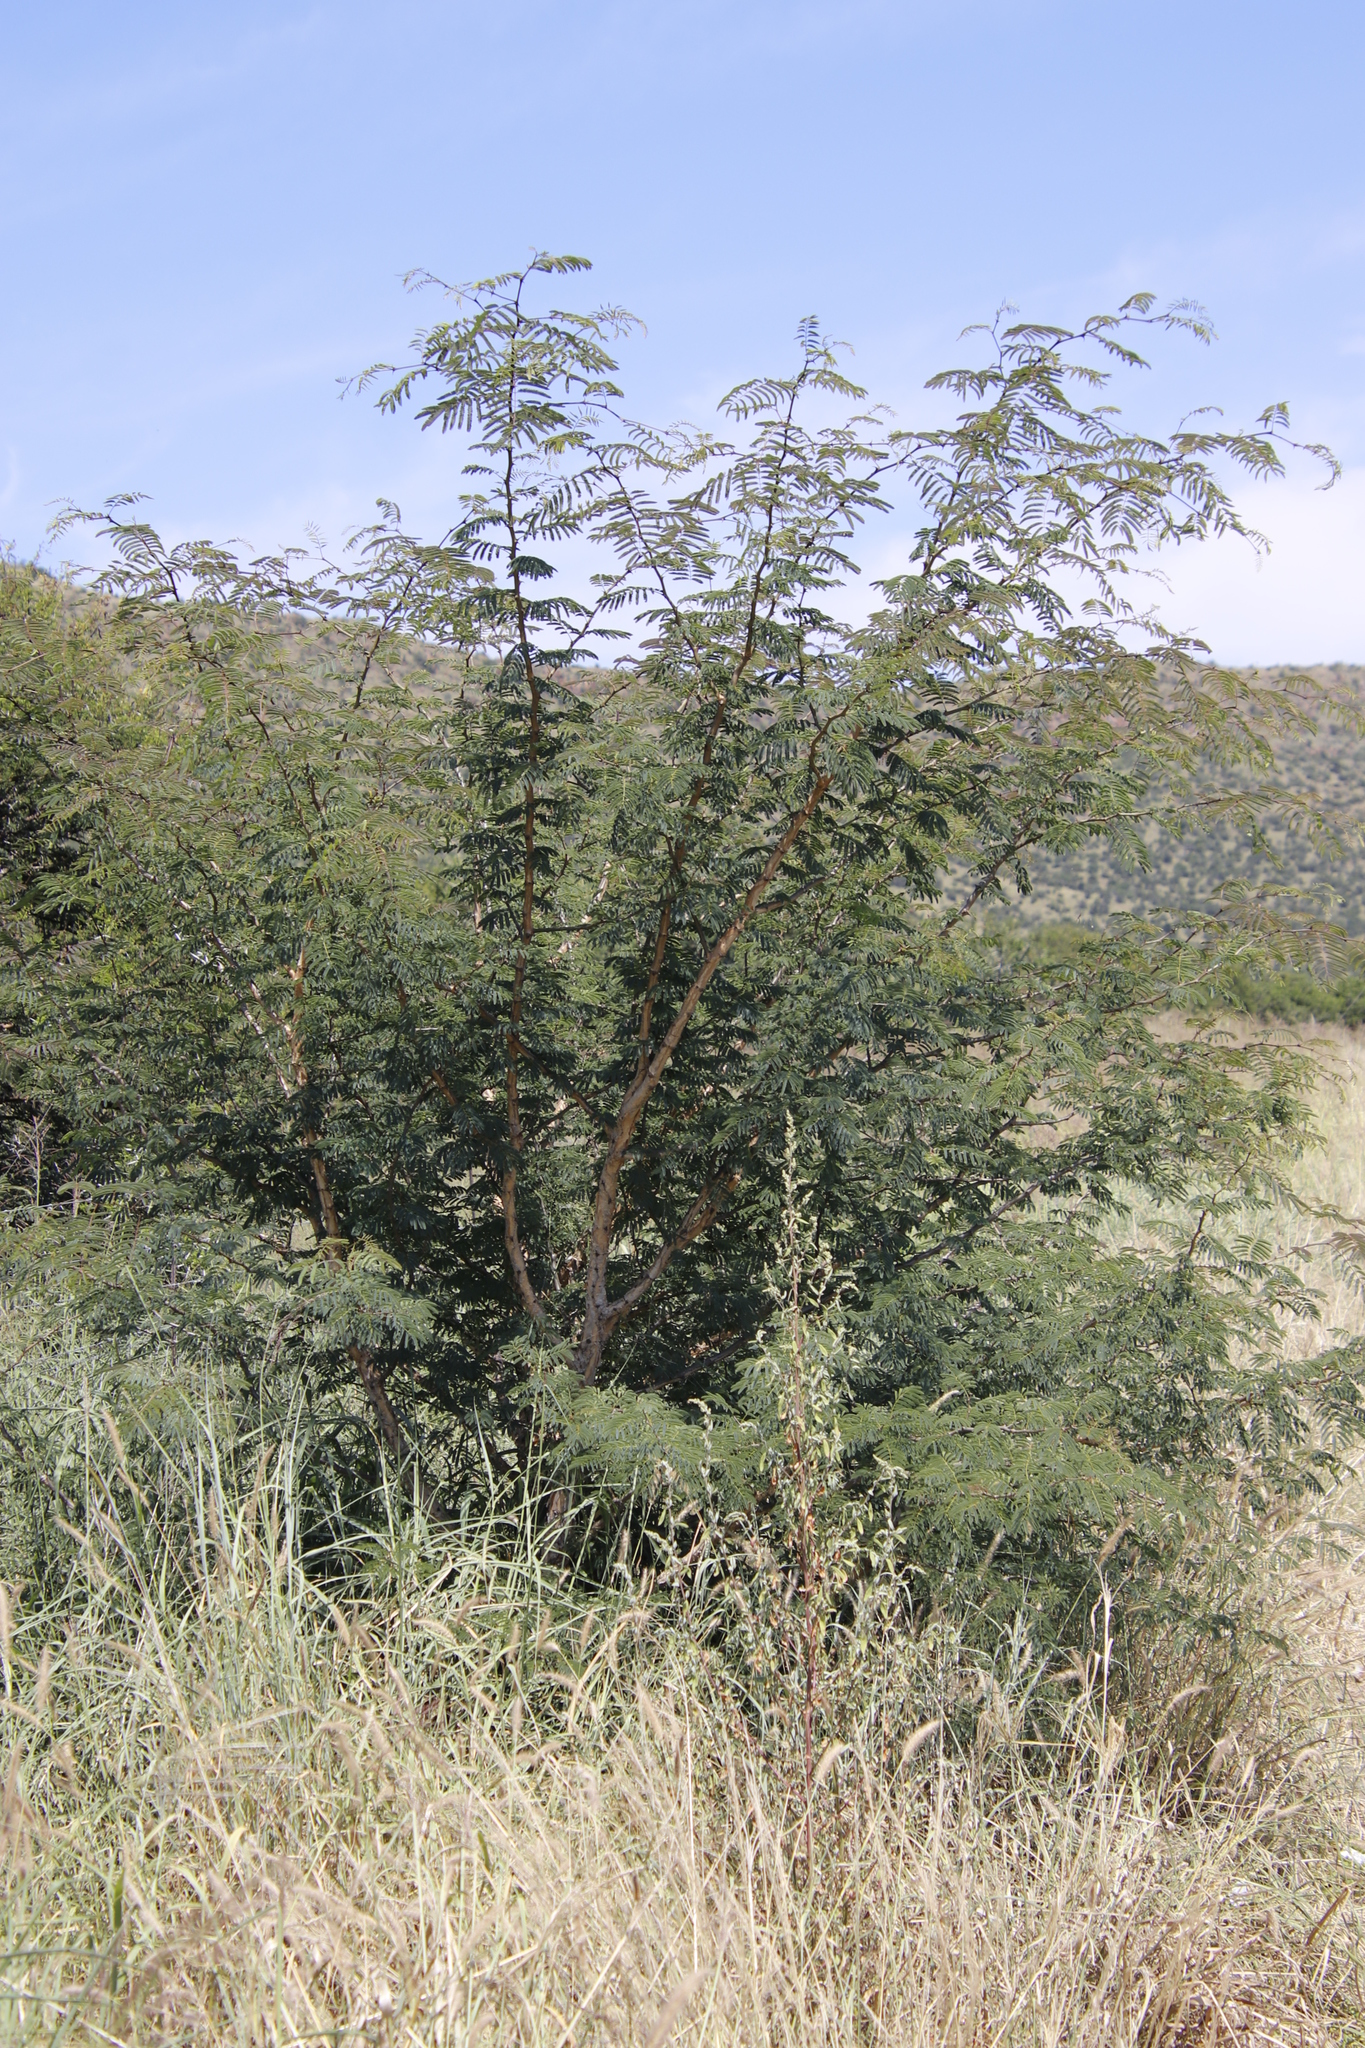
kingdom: Plantae
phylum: Tracheophyta
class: Magnoliopsida
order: Fabales
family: Fabaceae
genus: Senegalia
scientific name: Senegalia caffra
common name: Cat thorn
